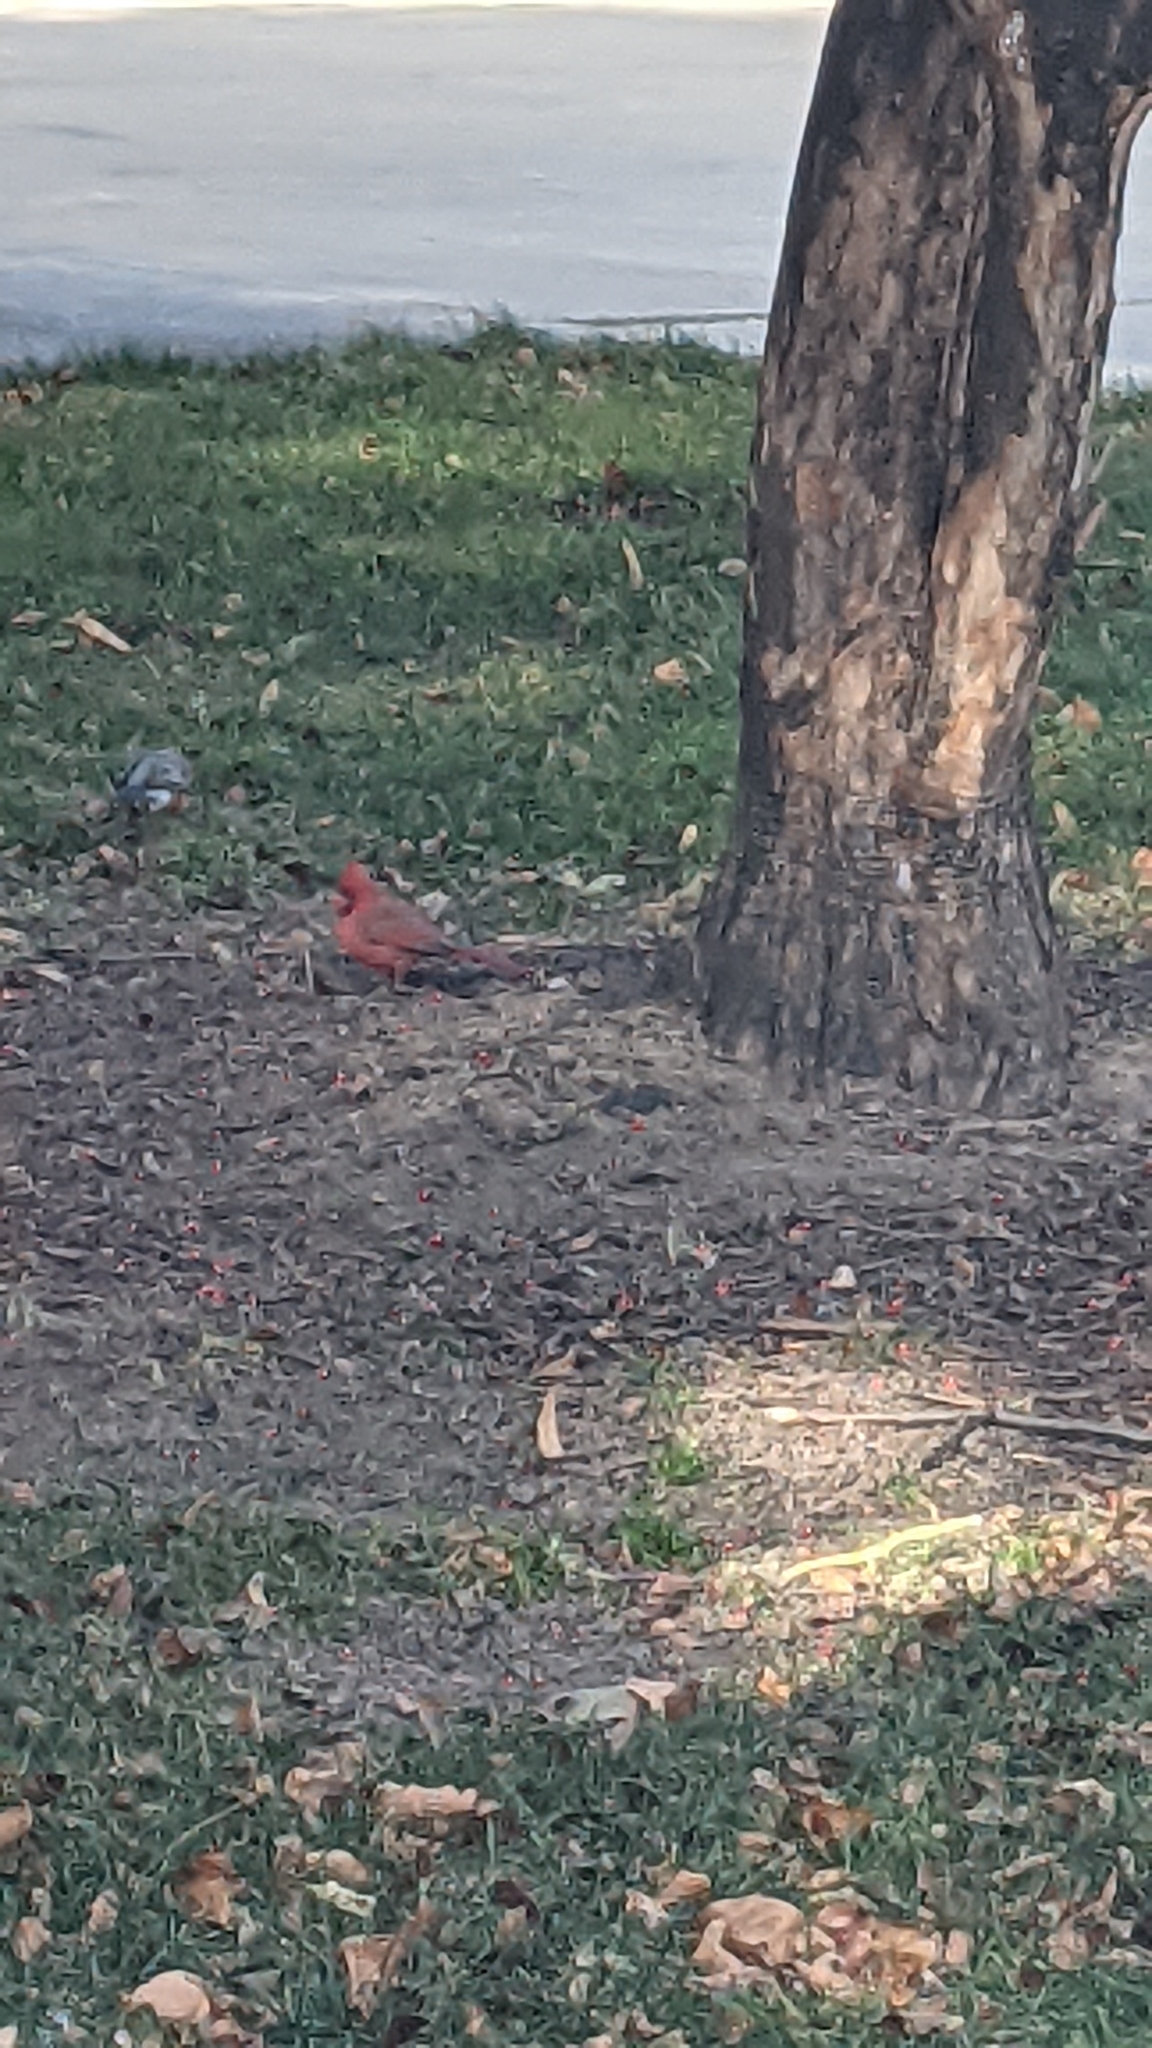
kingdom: Animalia
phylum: Chordata
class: Aves
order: Passeriformes
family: Cardinalidae
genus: Cardinalis
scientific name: Cardinalis cardinalis
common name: Northern cardinal
